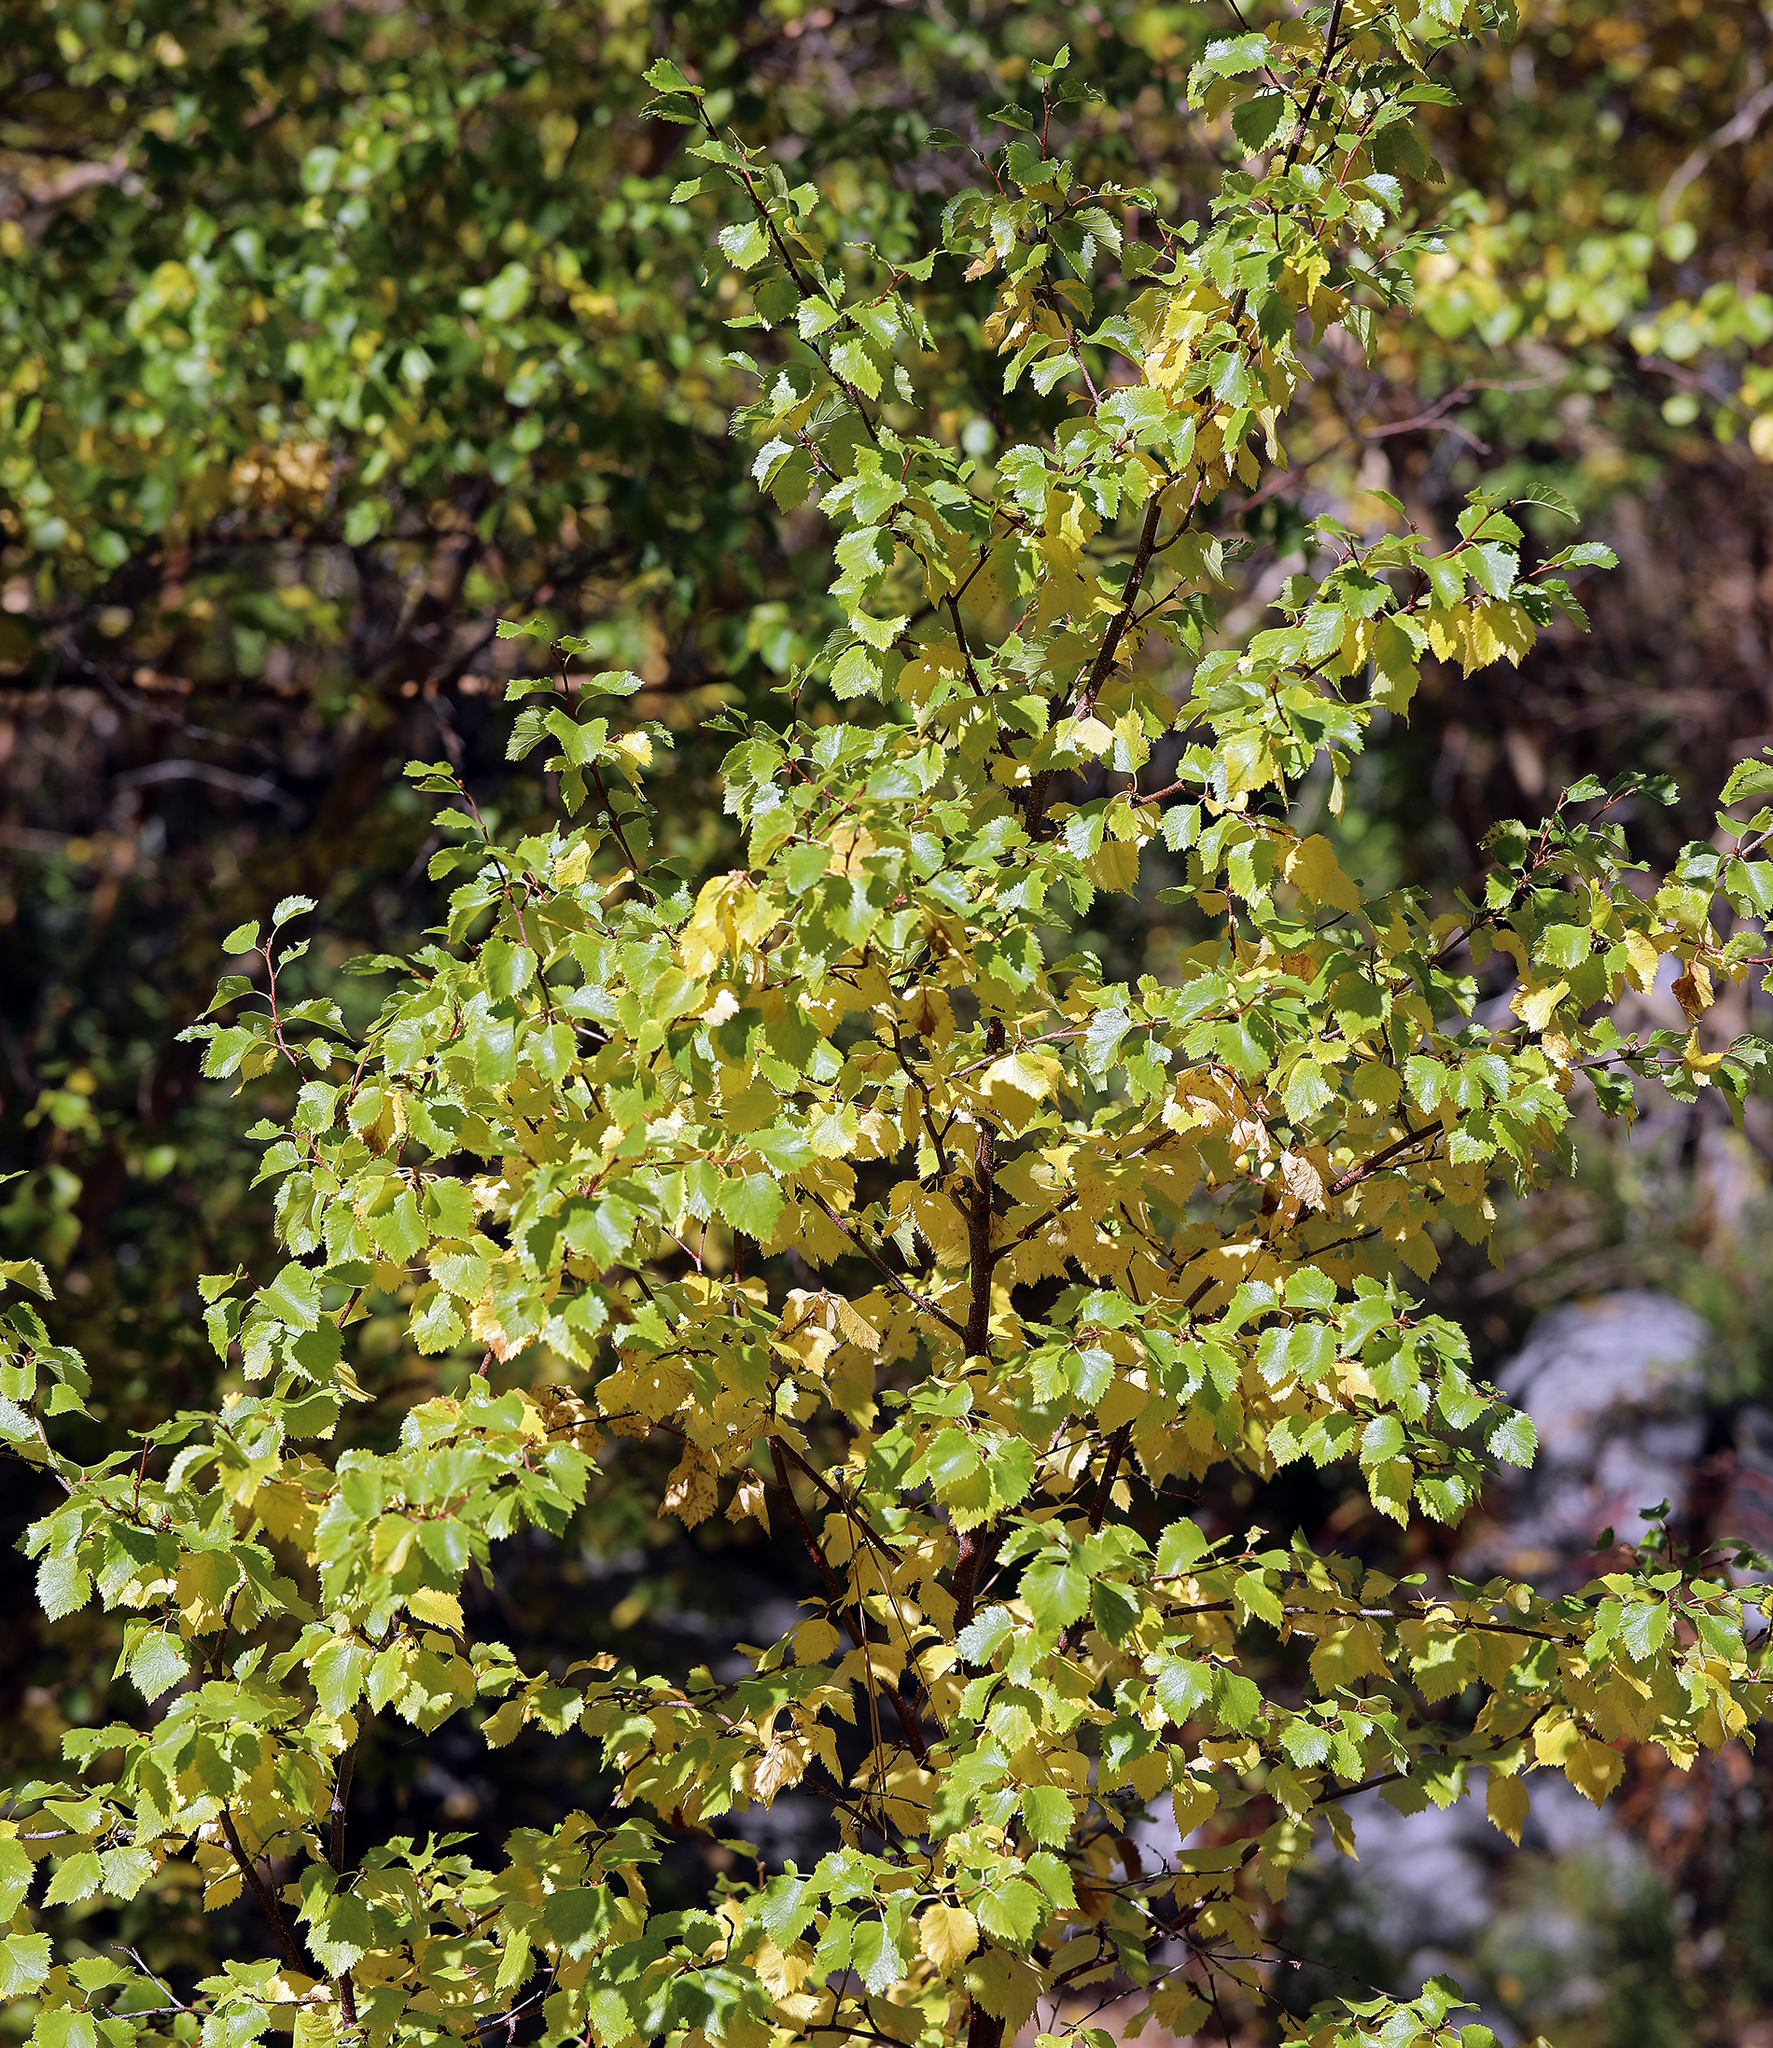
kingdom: Plantae
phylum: Tracheophyta
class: Magnoliopsida
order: Fagales
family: Betulaceae
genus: Betula
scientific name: Betula occidentalis
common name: River birch
